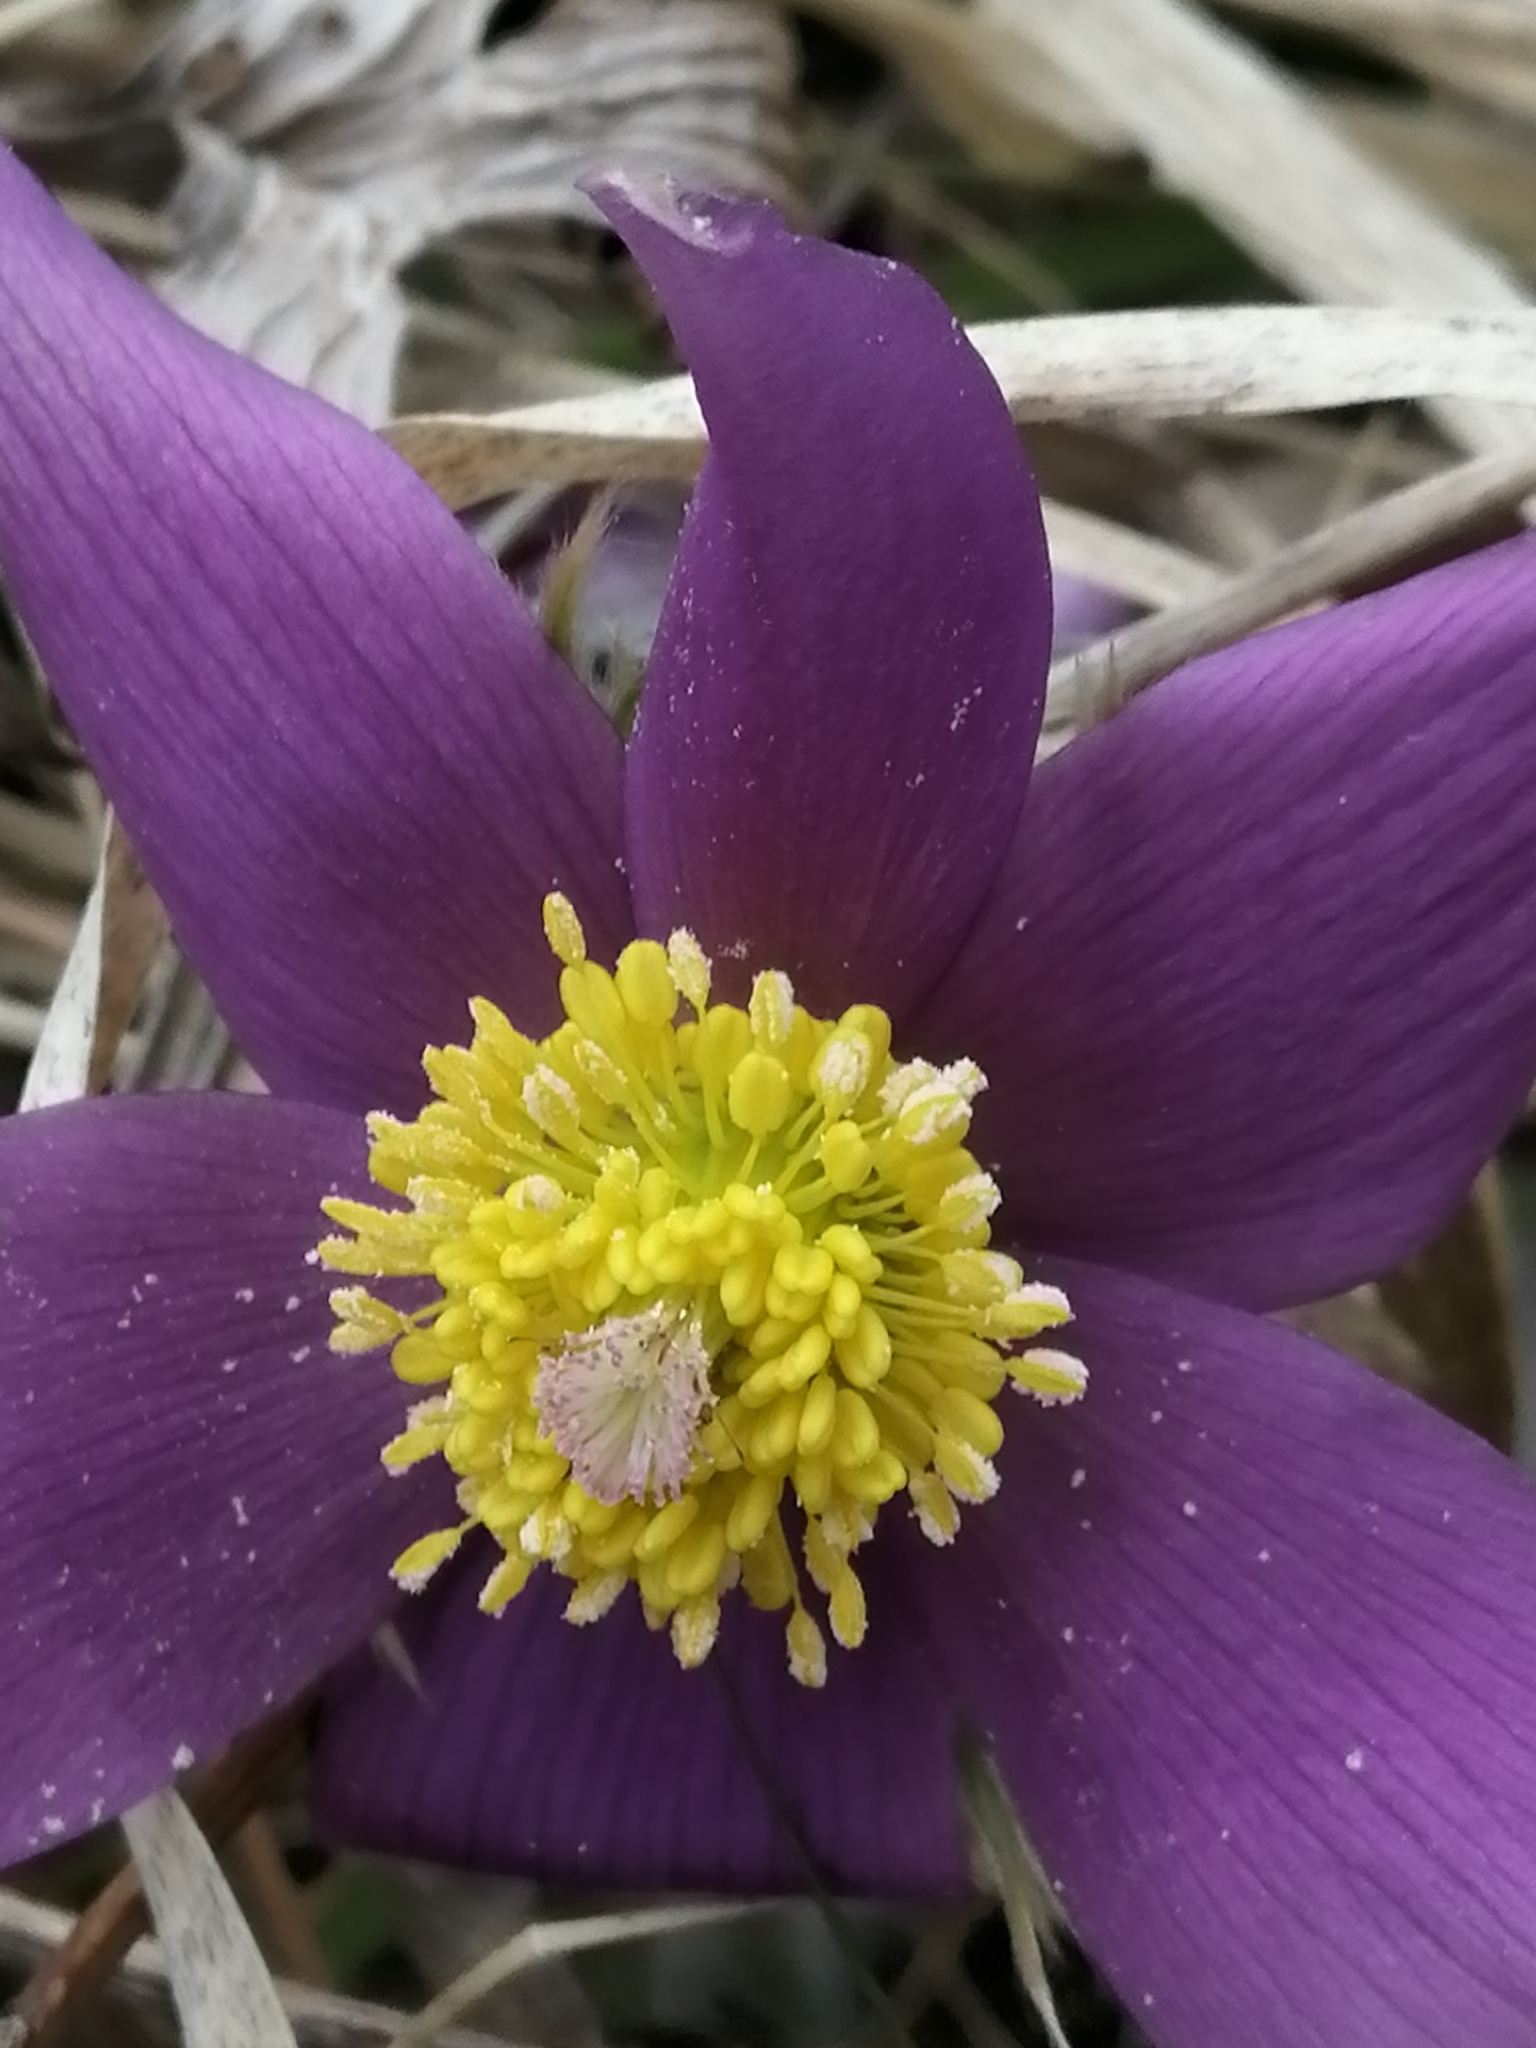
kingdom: Plantae
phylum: Tracheophyta
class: Magnoliopsida
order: Ranunculales
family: Ranunculaceae
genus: Pulsatilla
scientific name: Pulsatilla patens
